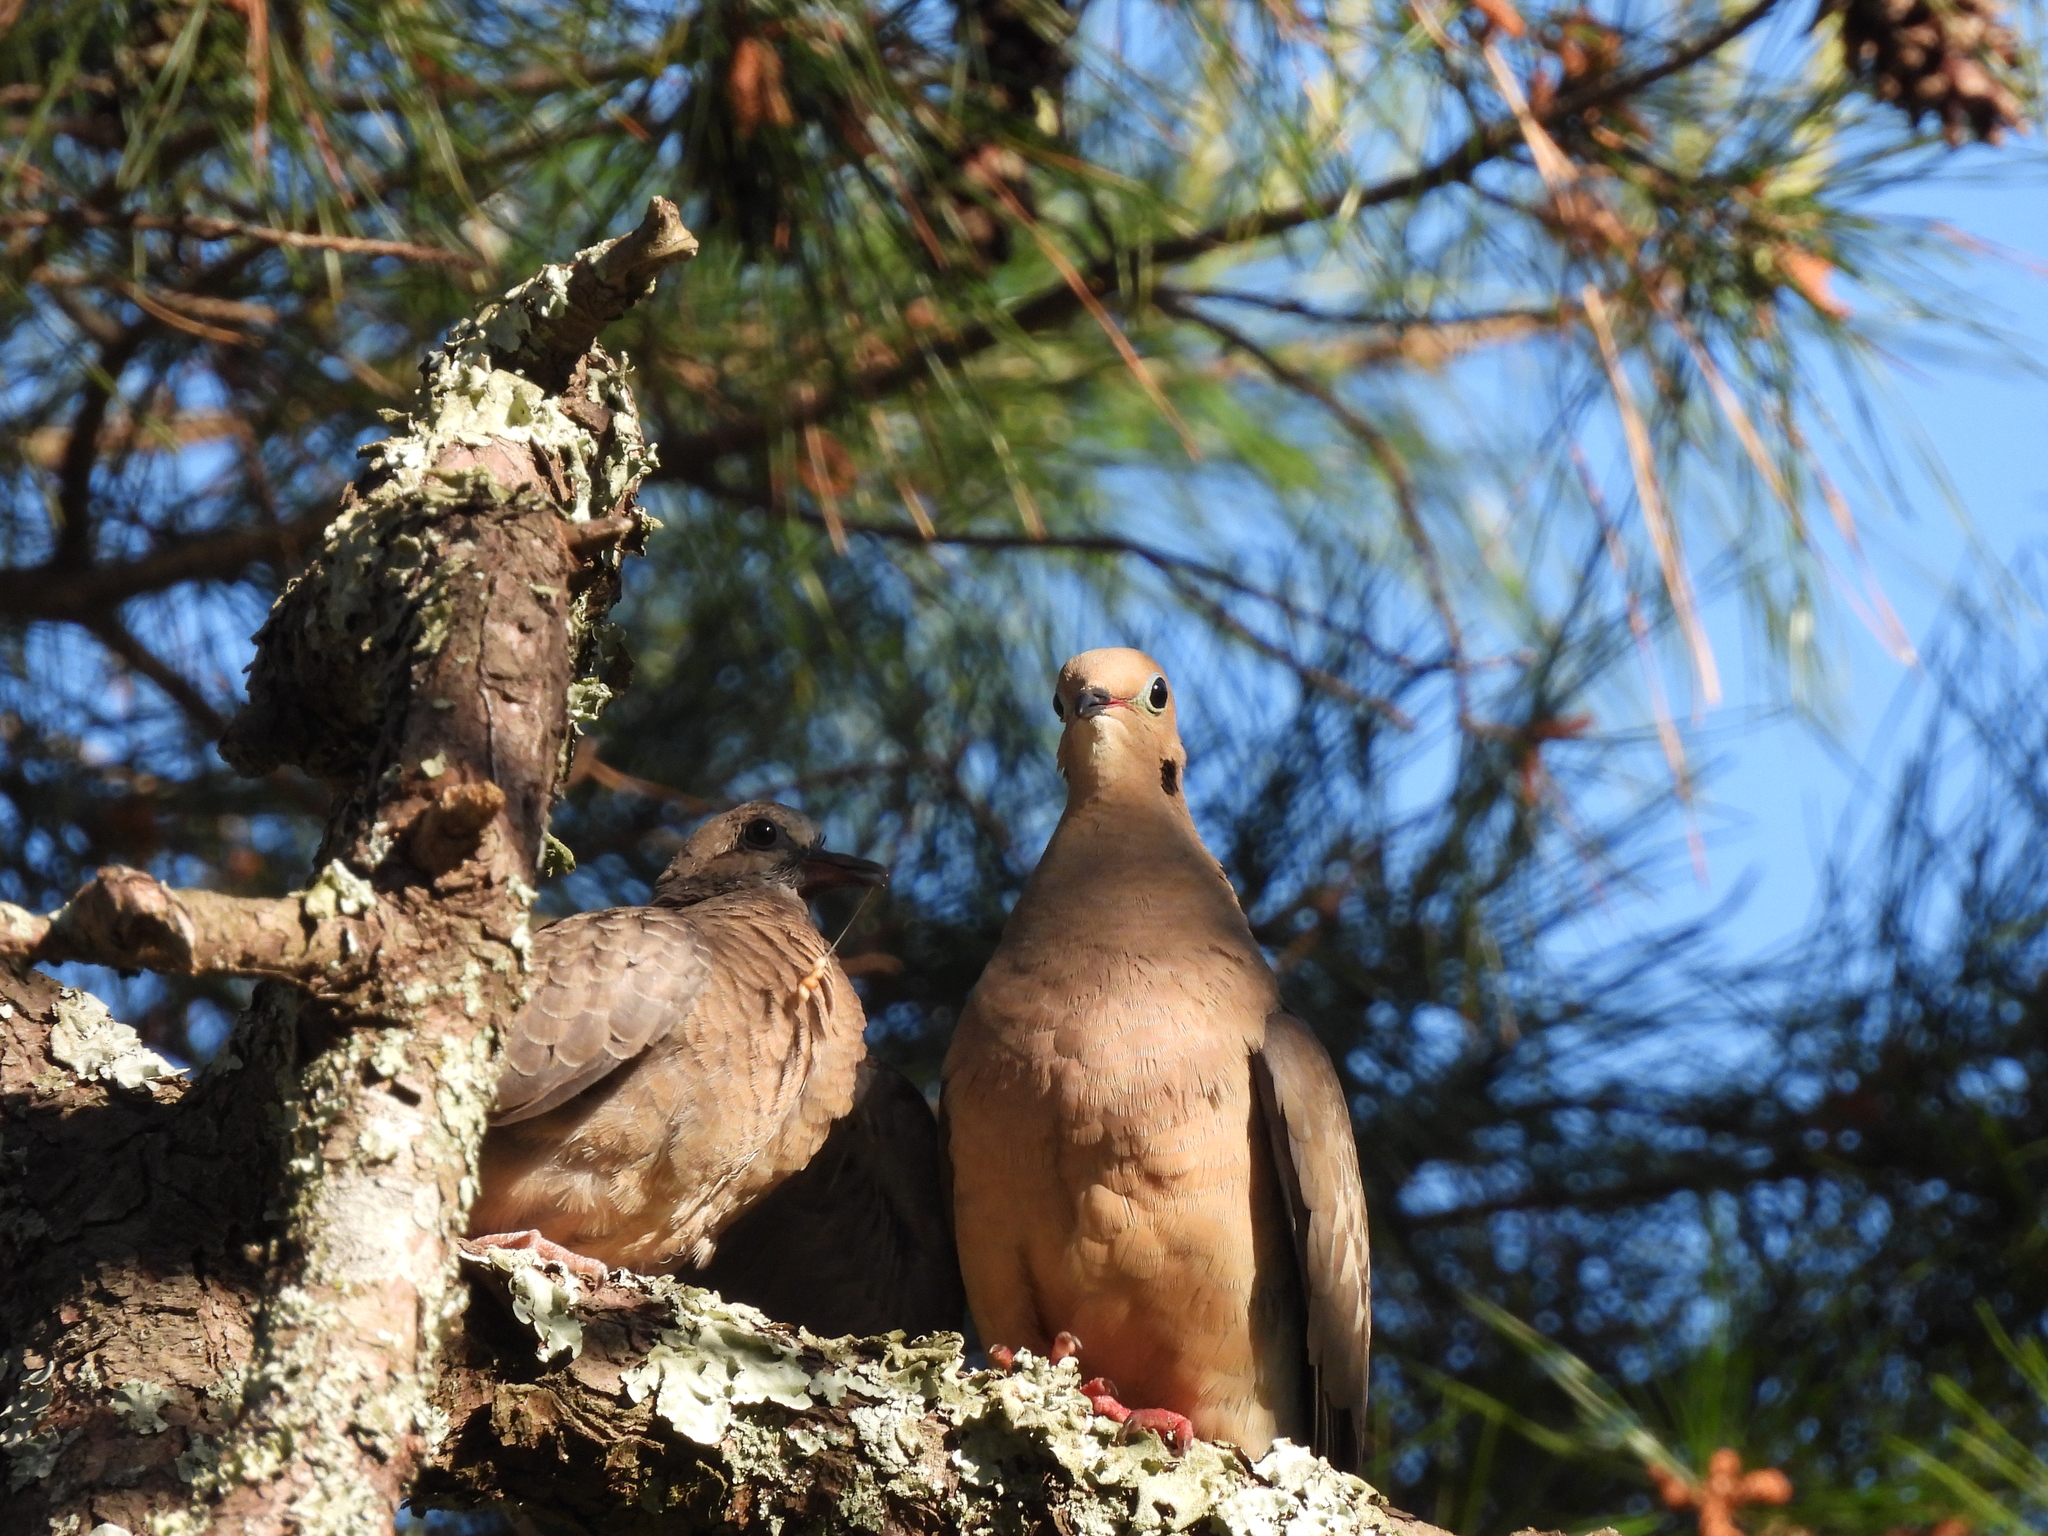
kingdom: Animalia
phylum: Chordata
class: Aves
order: Columbiformes
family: Columbidae
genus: Zenaida
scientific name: Zenaida macroura
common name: Mourning dove
